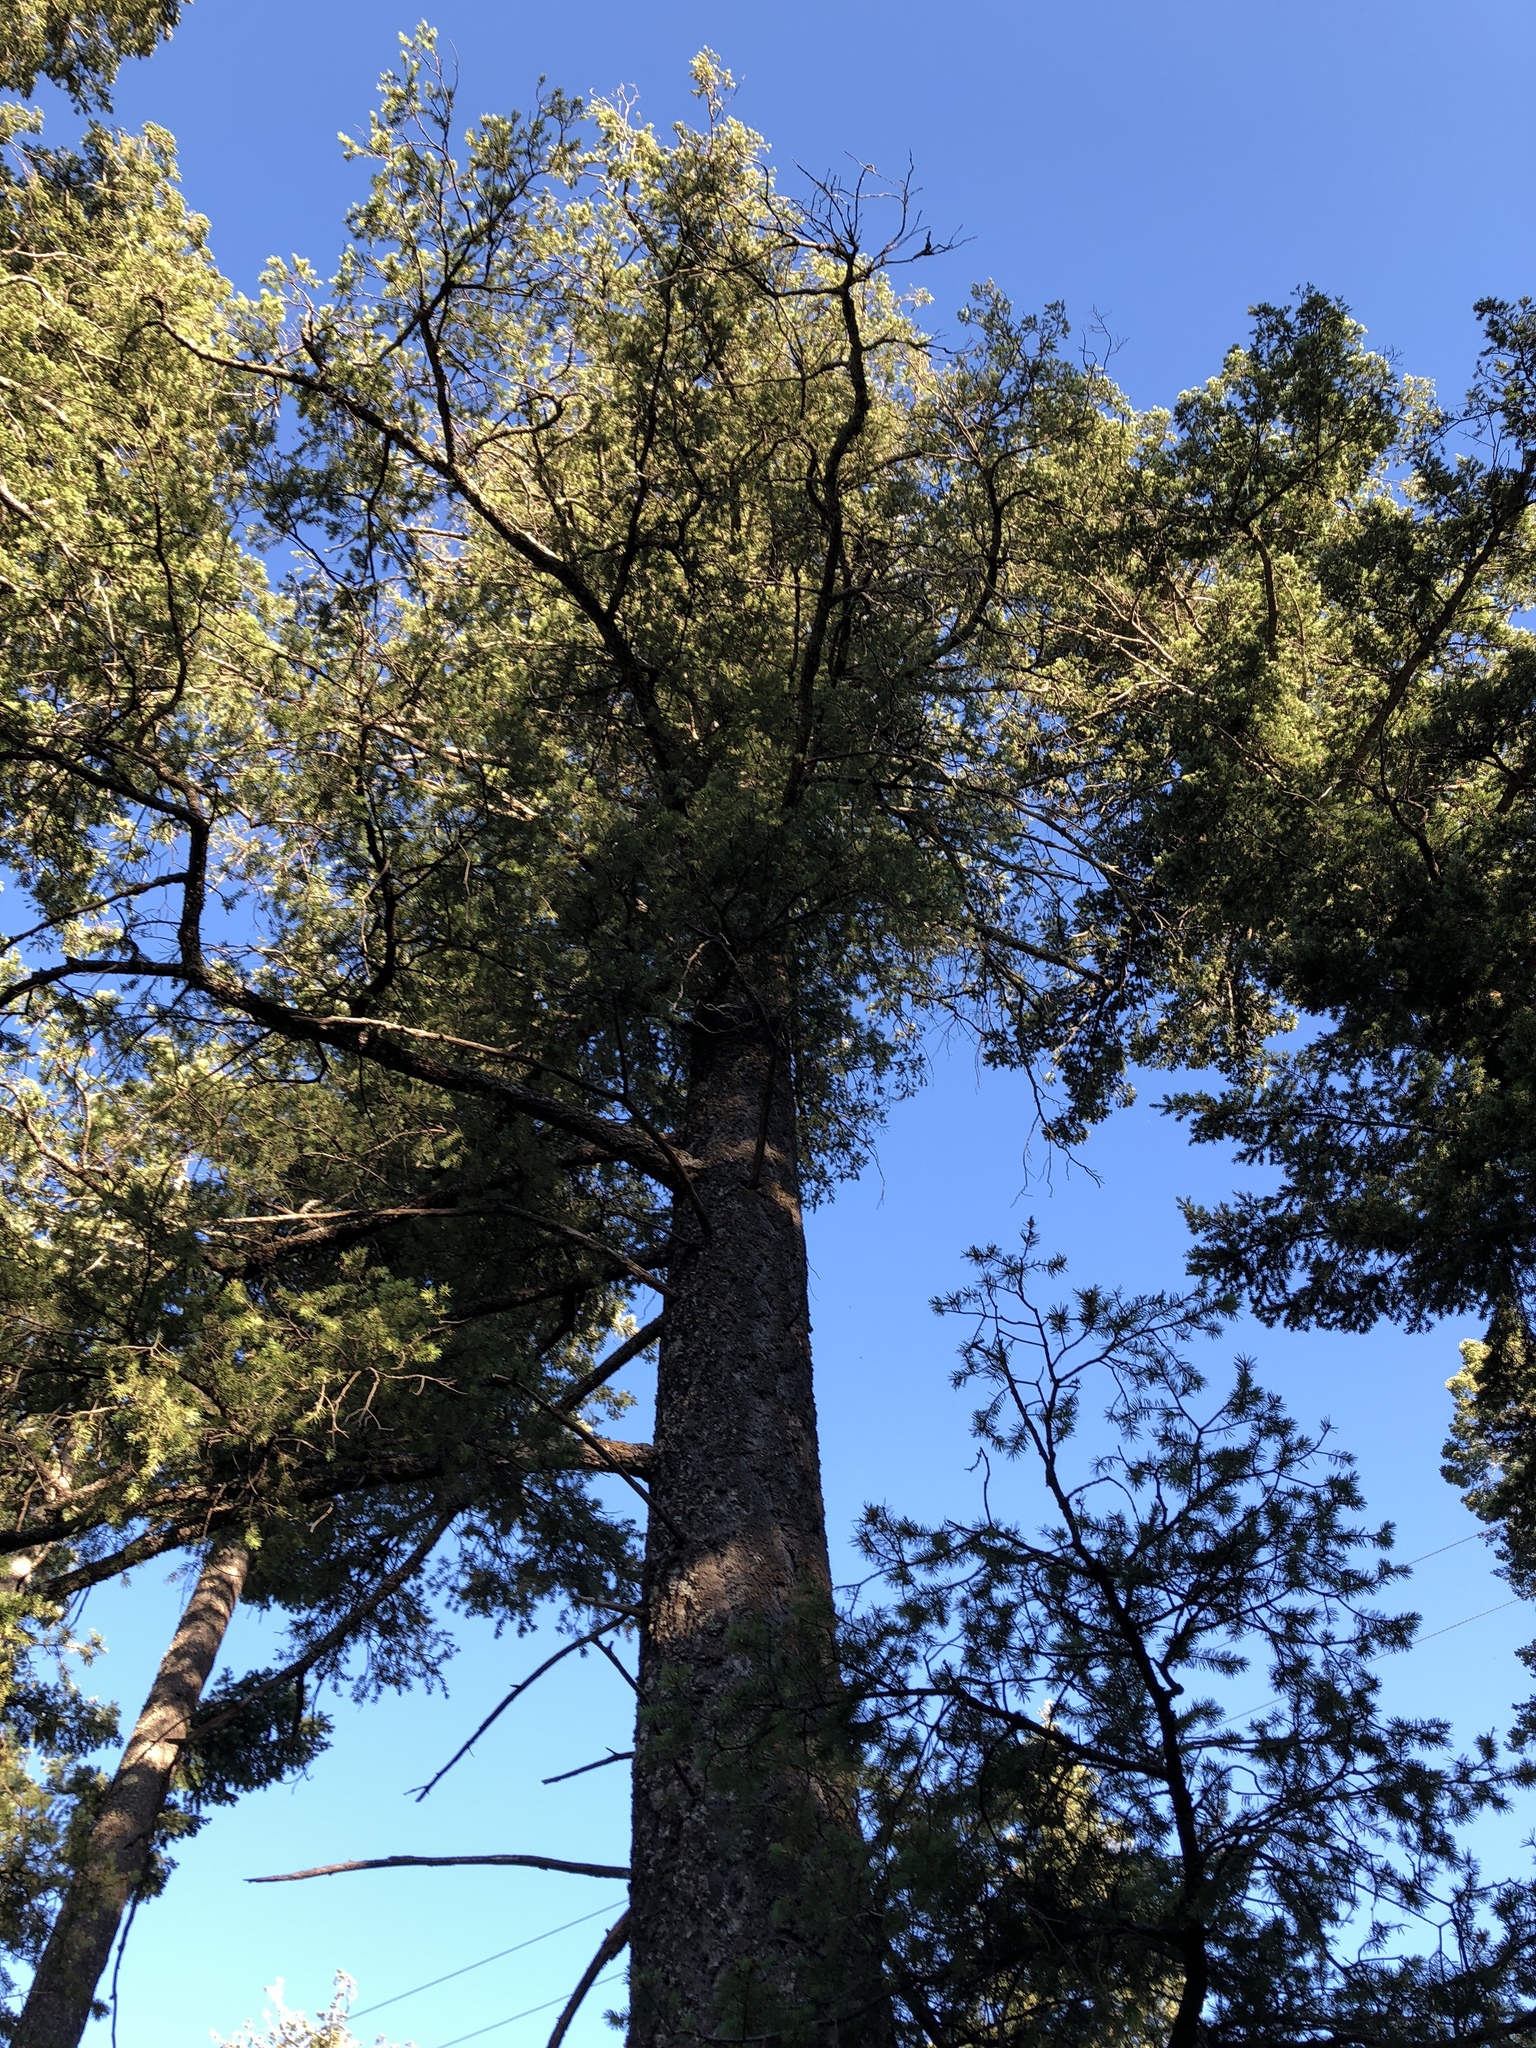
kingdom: Plantae
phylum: Tracheophyta
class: Pinopsida
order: Pinales
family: Pinaceae
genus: Pseudotsuga
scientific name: Pseudotsuga menziesii
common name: Douglas fir
